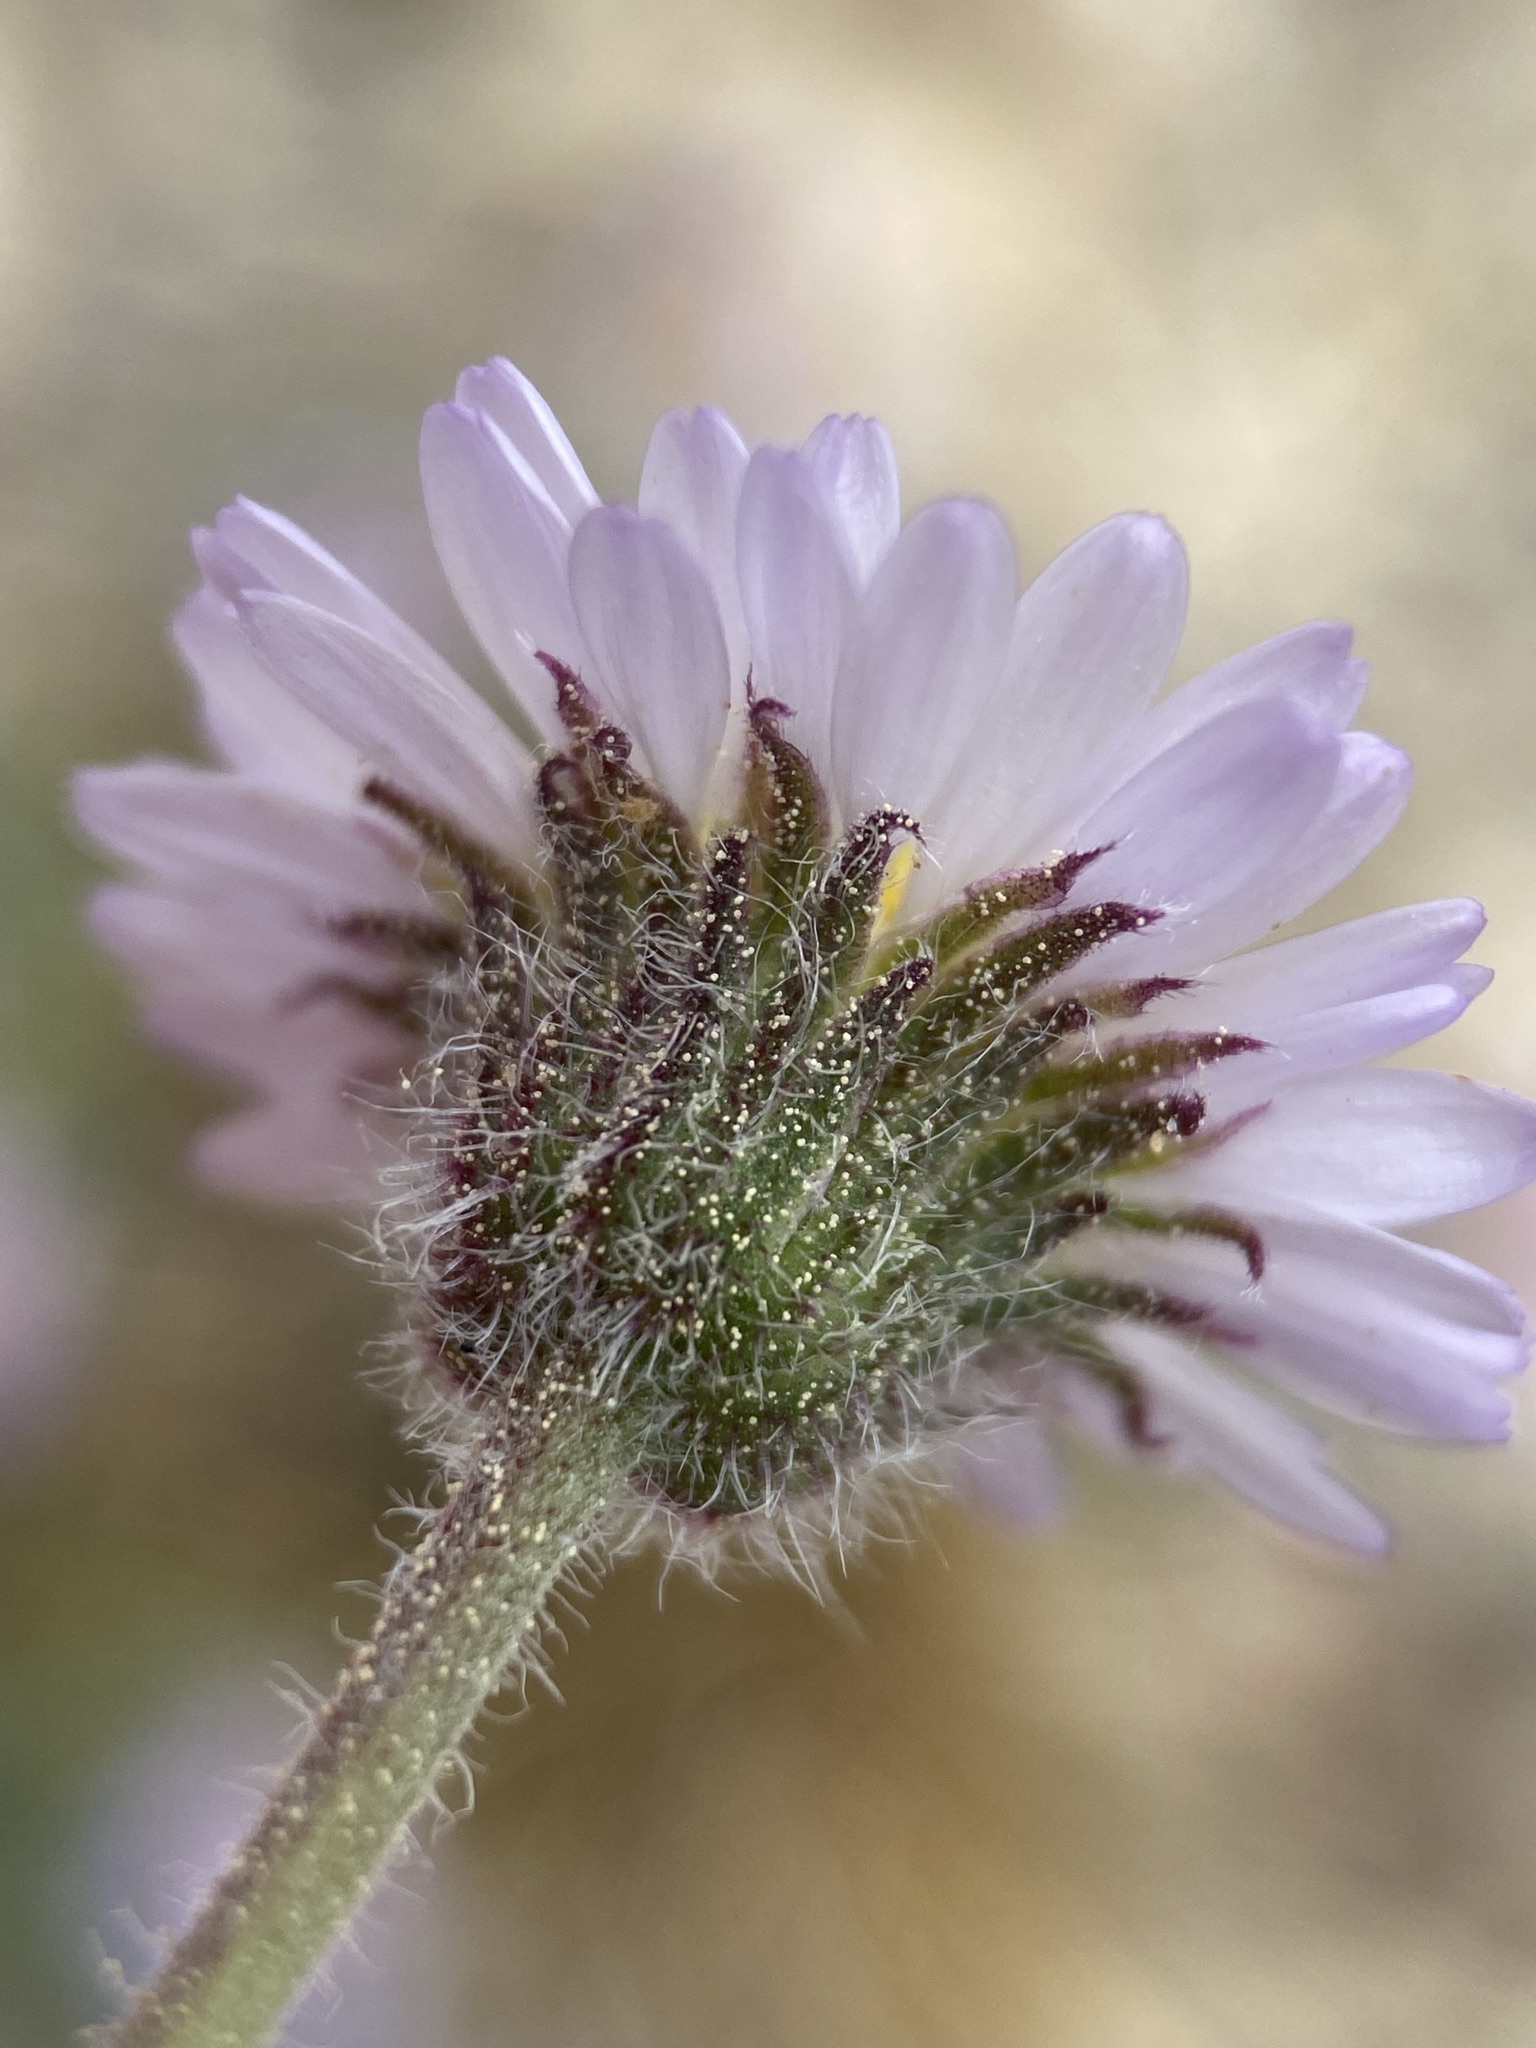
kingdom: Plantae
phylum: Tracheophyta
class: Magnoliopsida
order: Asterales
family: Asteraceae
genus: Erigeron
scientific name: Erigeron compositus
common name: Dwarf mountain fleabane
